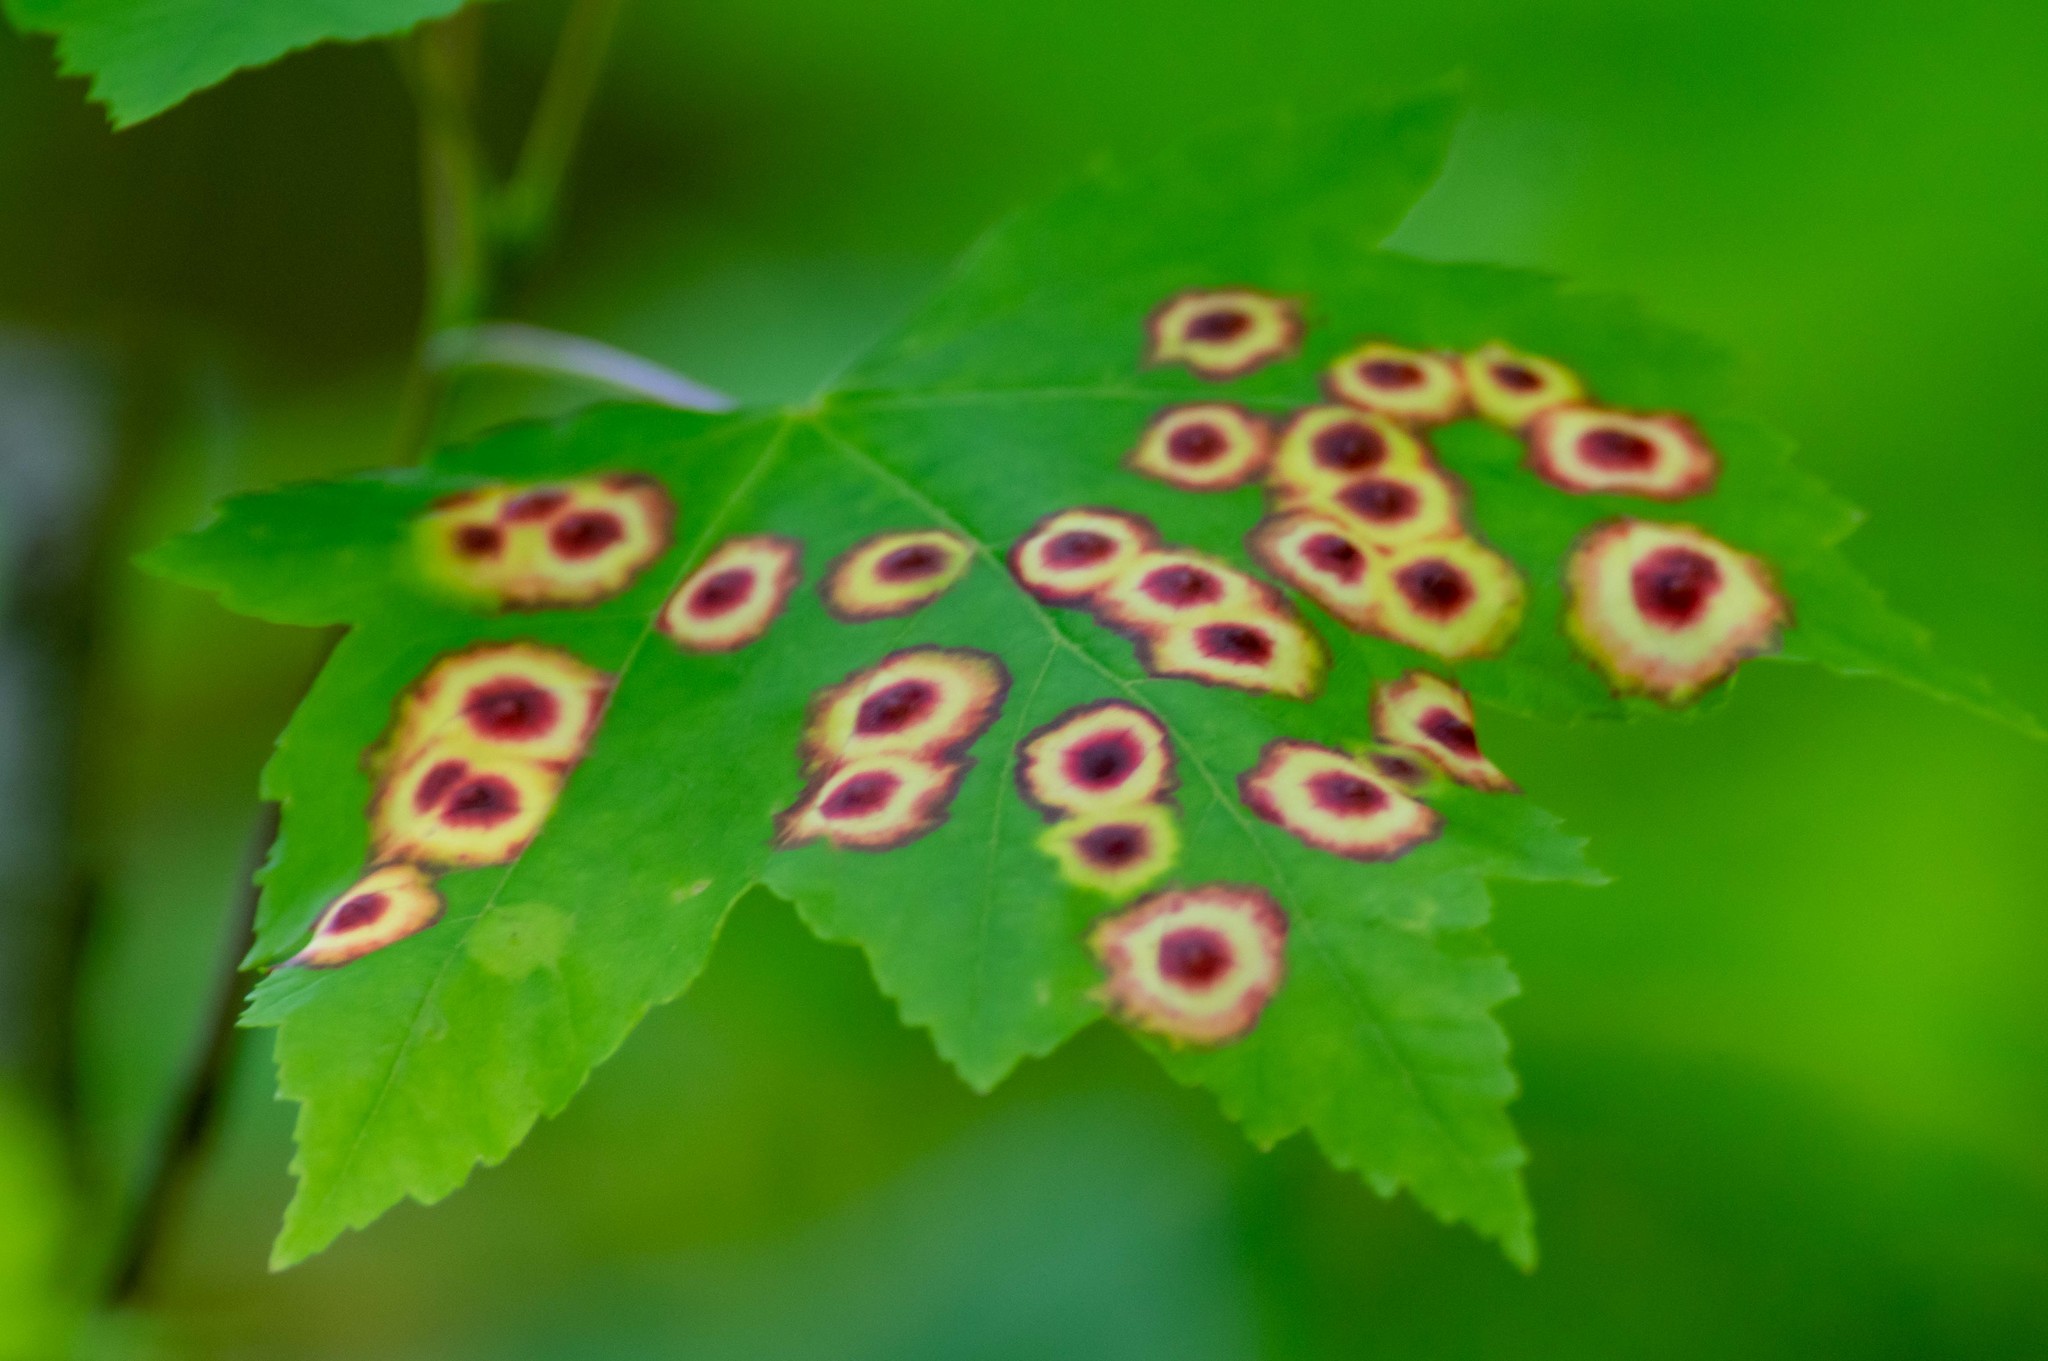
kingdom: Animalia
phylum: Arthropoda
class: Insecta
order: Diptera
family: Cecidomyiidae
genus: Acericecis
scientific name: Acericecis ocellaris
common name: Ocellate gall midge
